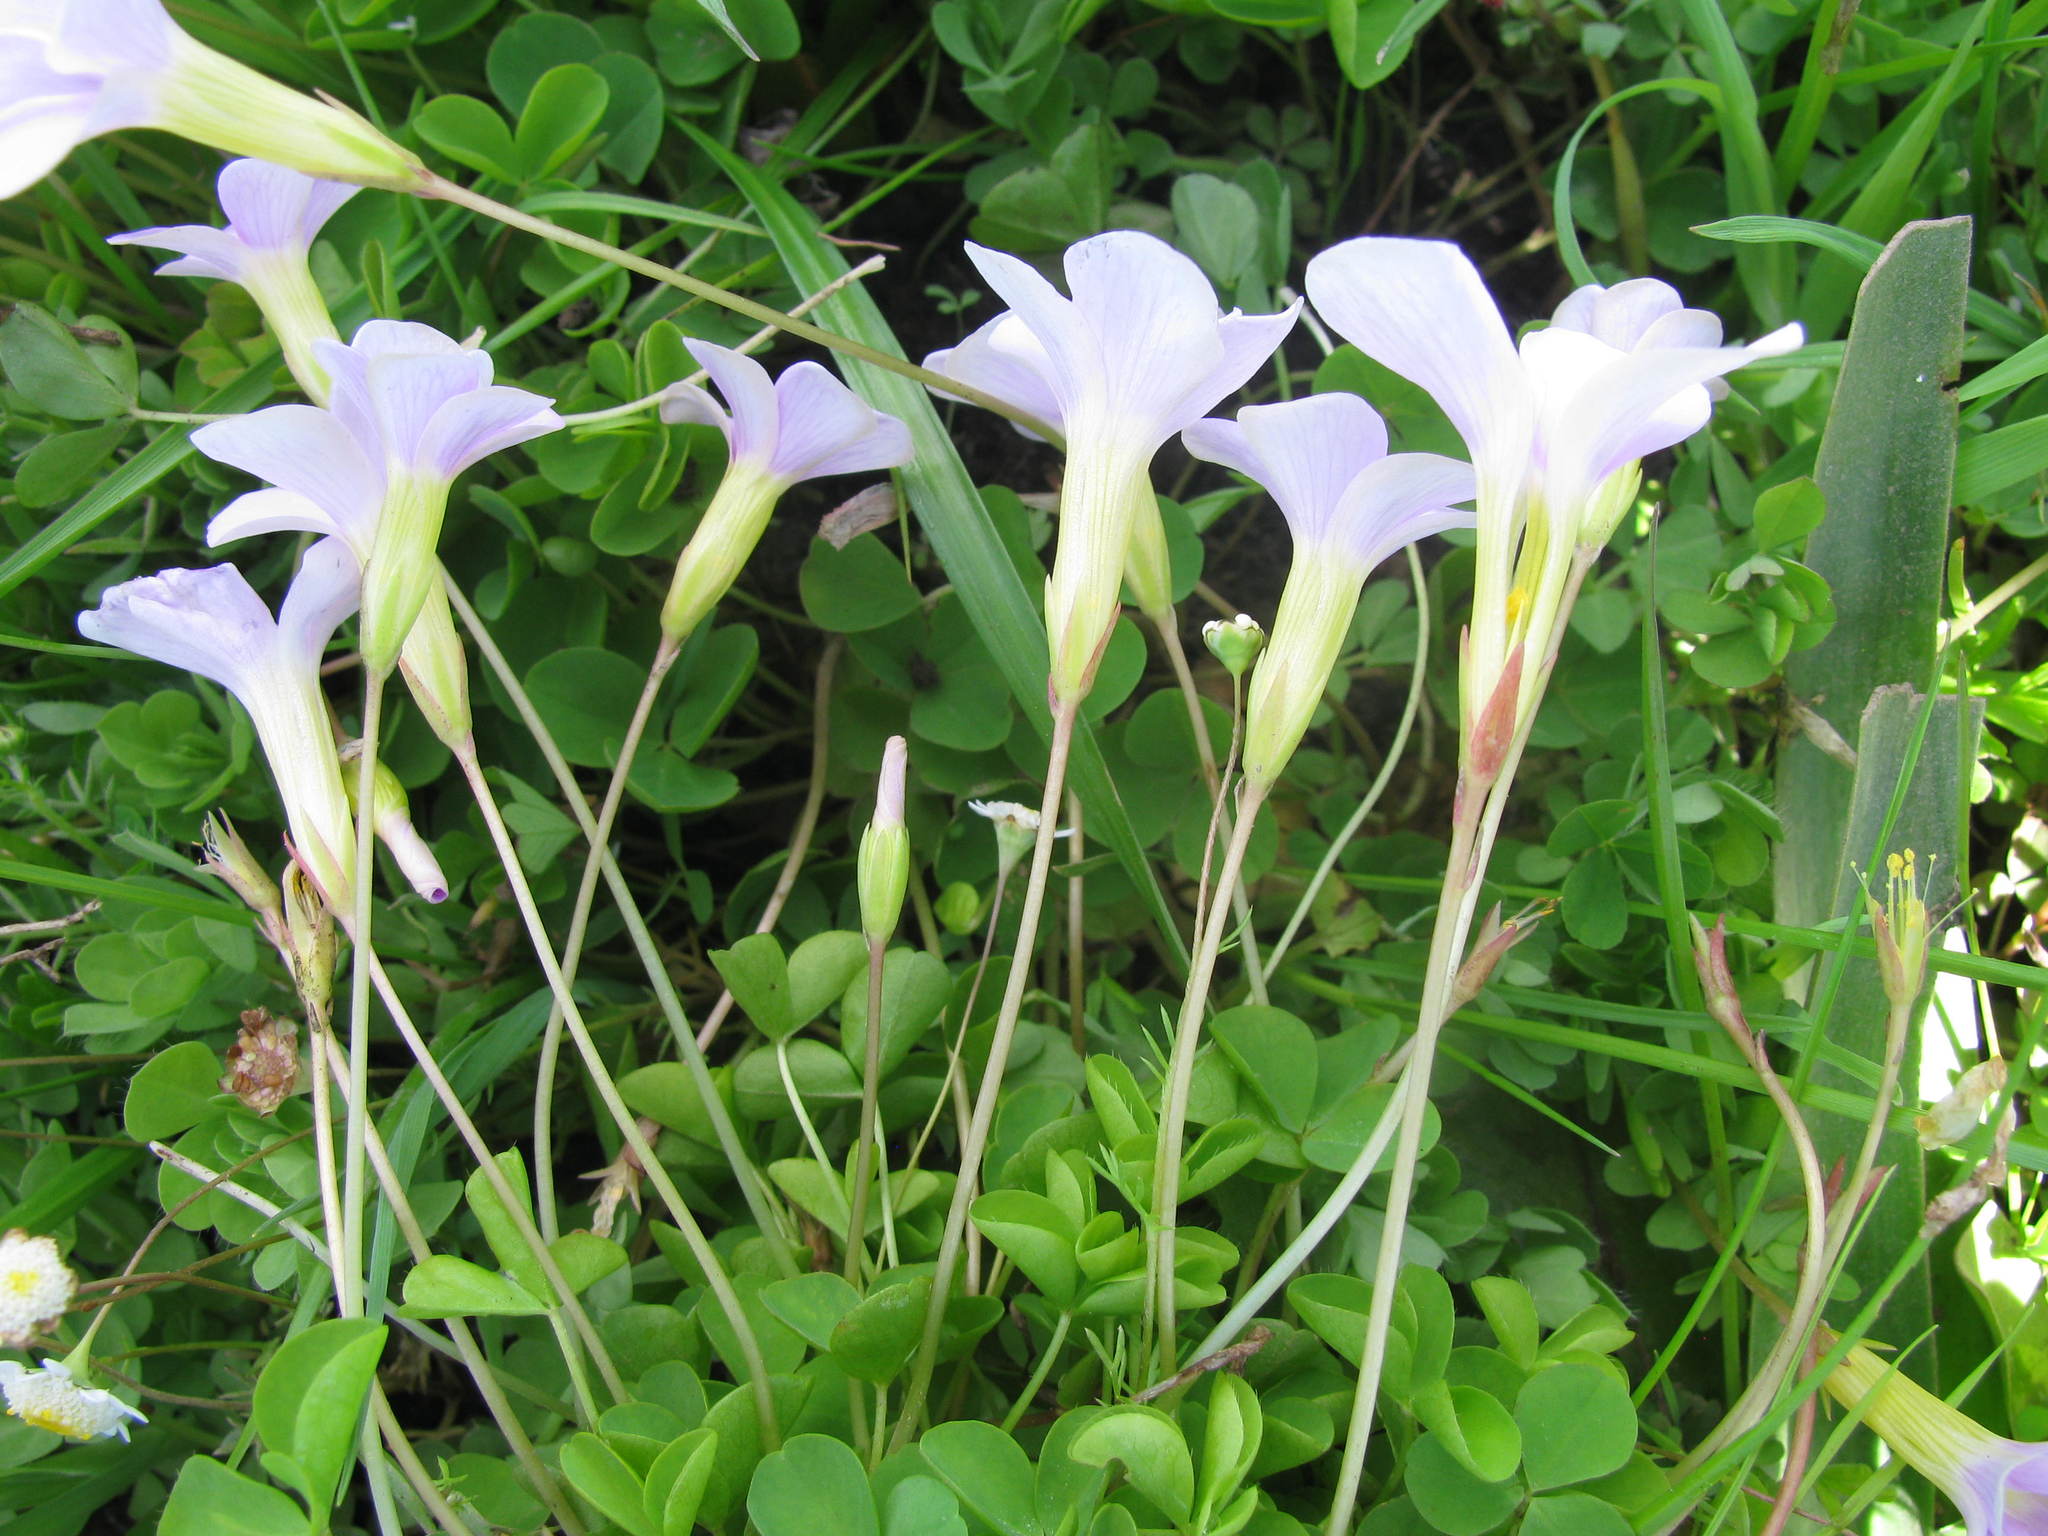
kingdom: Plantae
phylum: Tracheophyta
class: Magnoliopsida
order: Oxalidales
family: Oxalidaceae
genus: Oxalis
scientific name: Oxalis nidulans
